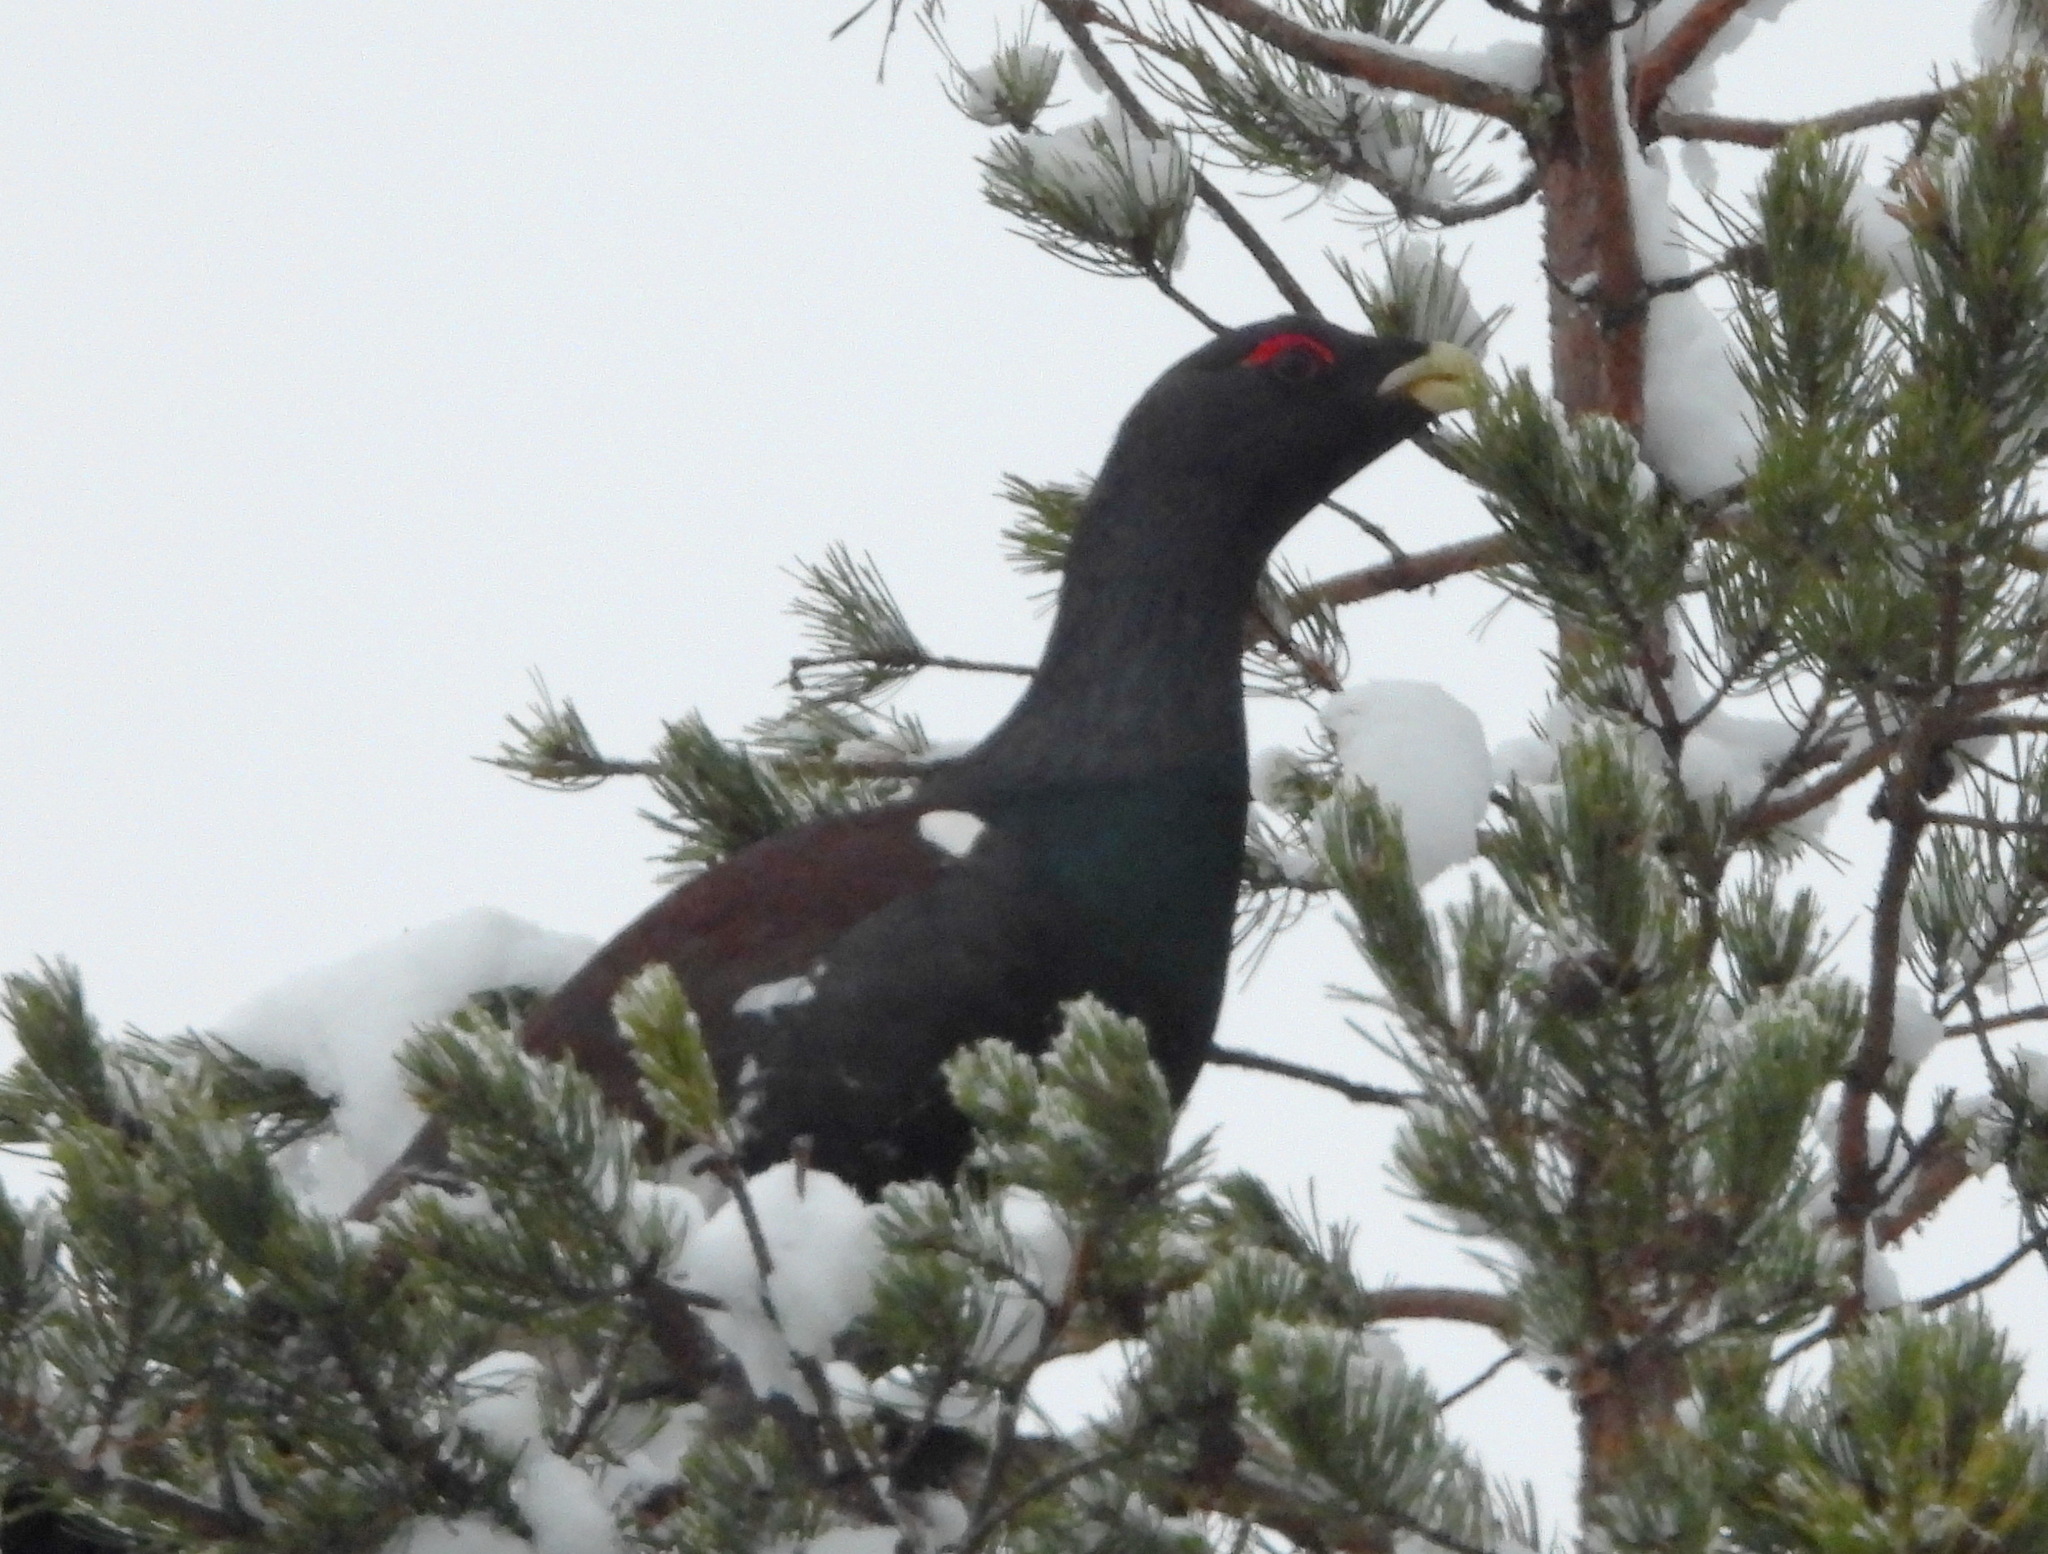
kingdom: Animalia
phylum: Chordata
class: Aves
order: Galliformes
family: Phasianidae
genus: Tetrao
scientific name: Tetrao urogallus
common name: Western capercaillie
